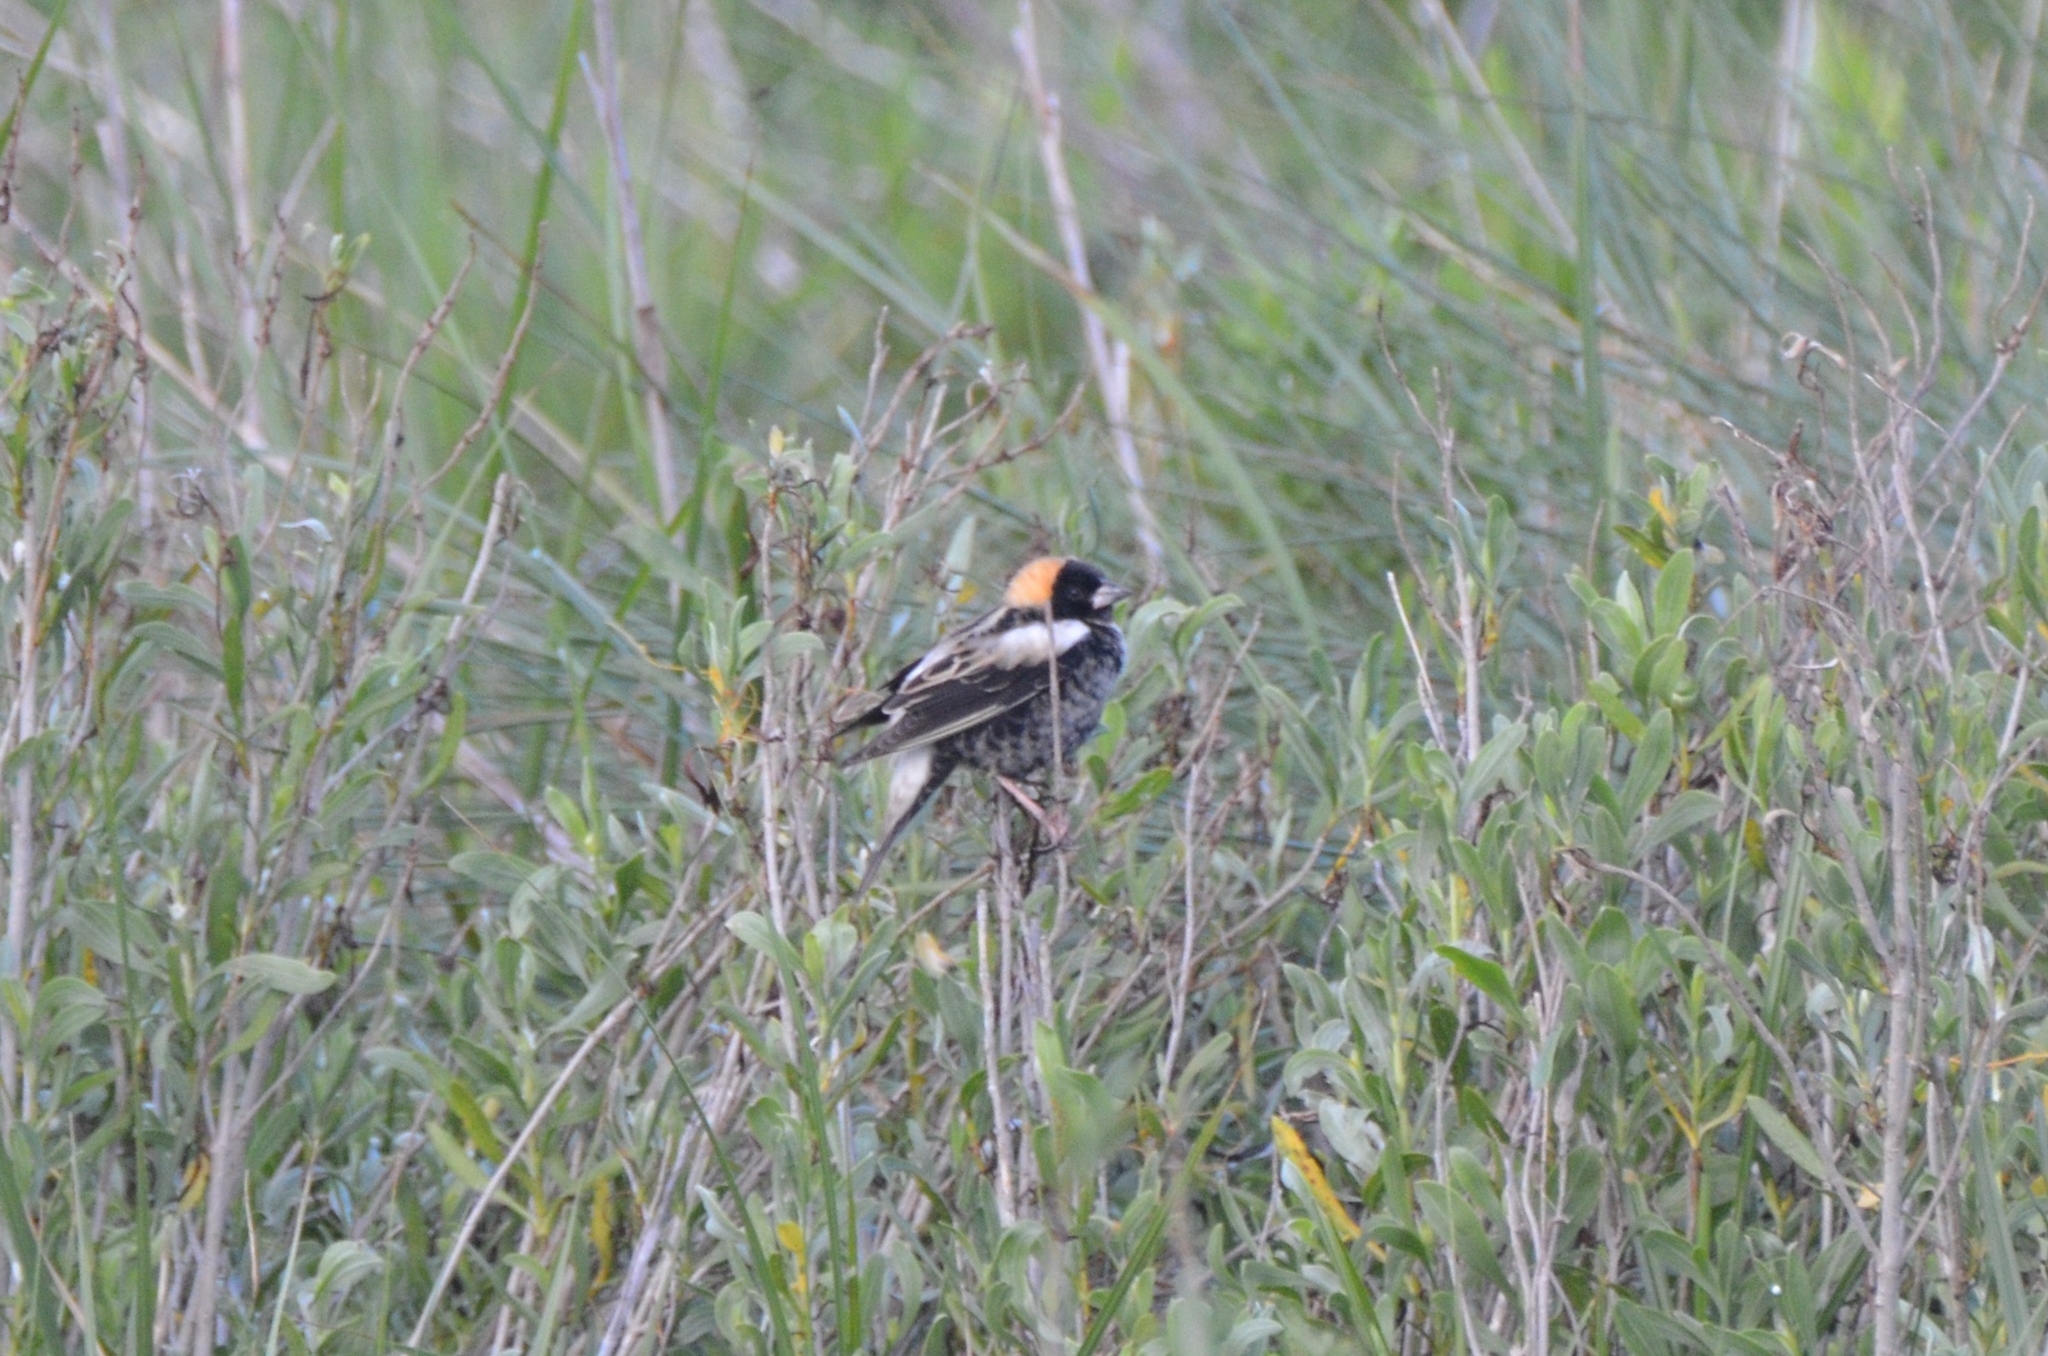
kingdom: Animalia
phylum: Chordata
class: Aves
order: Passeriformes
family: Icteridae
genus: Dolichonyx
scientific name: Dolichonyx oryzivorus
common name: Bobolink
